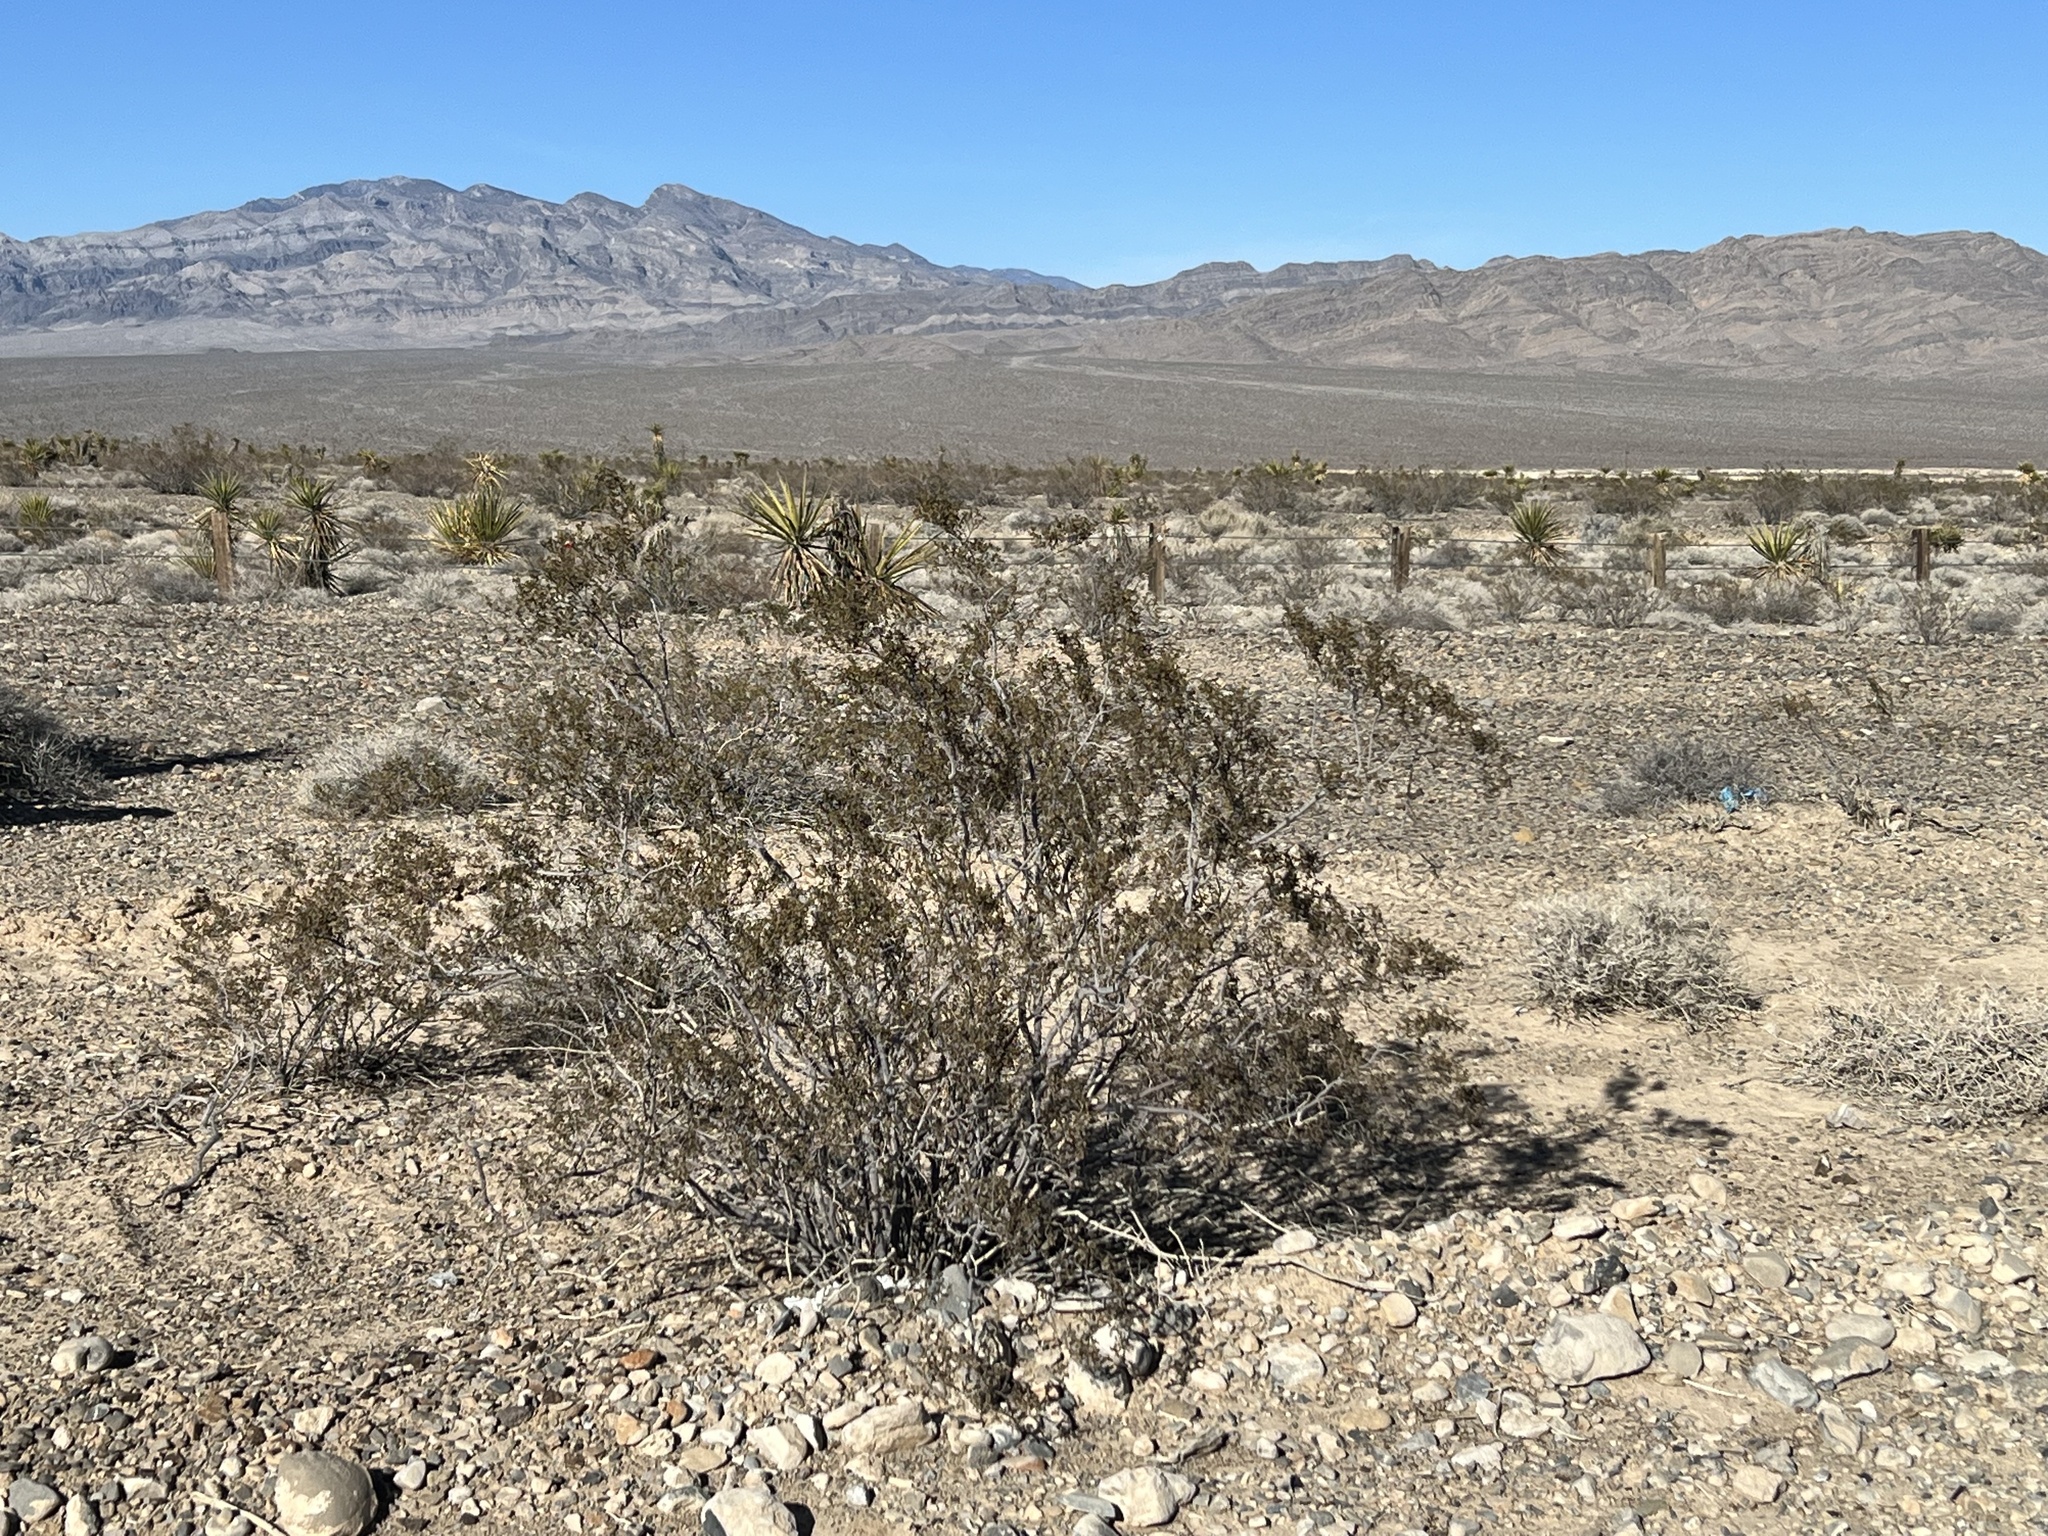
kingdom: Plantae
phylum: Tracheophyta
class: Magnoliopsida
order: Zygophyllales
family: Zygophyllaceae
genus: Larrea
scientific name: Larrea tridentata
